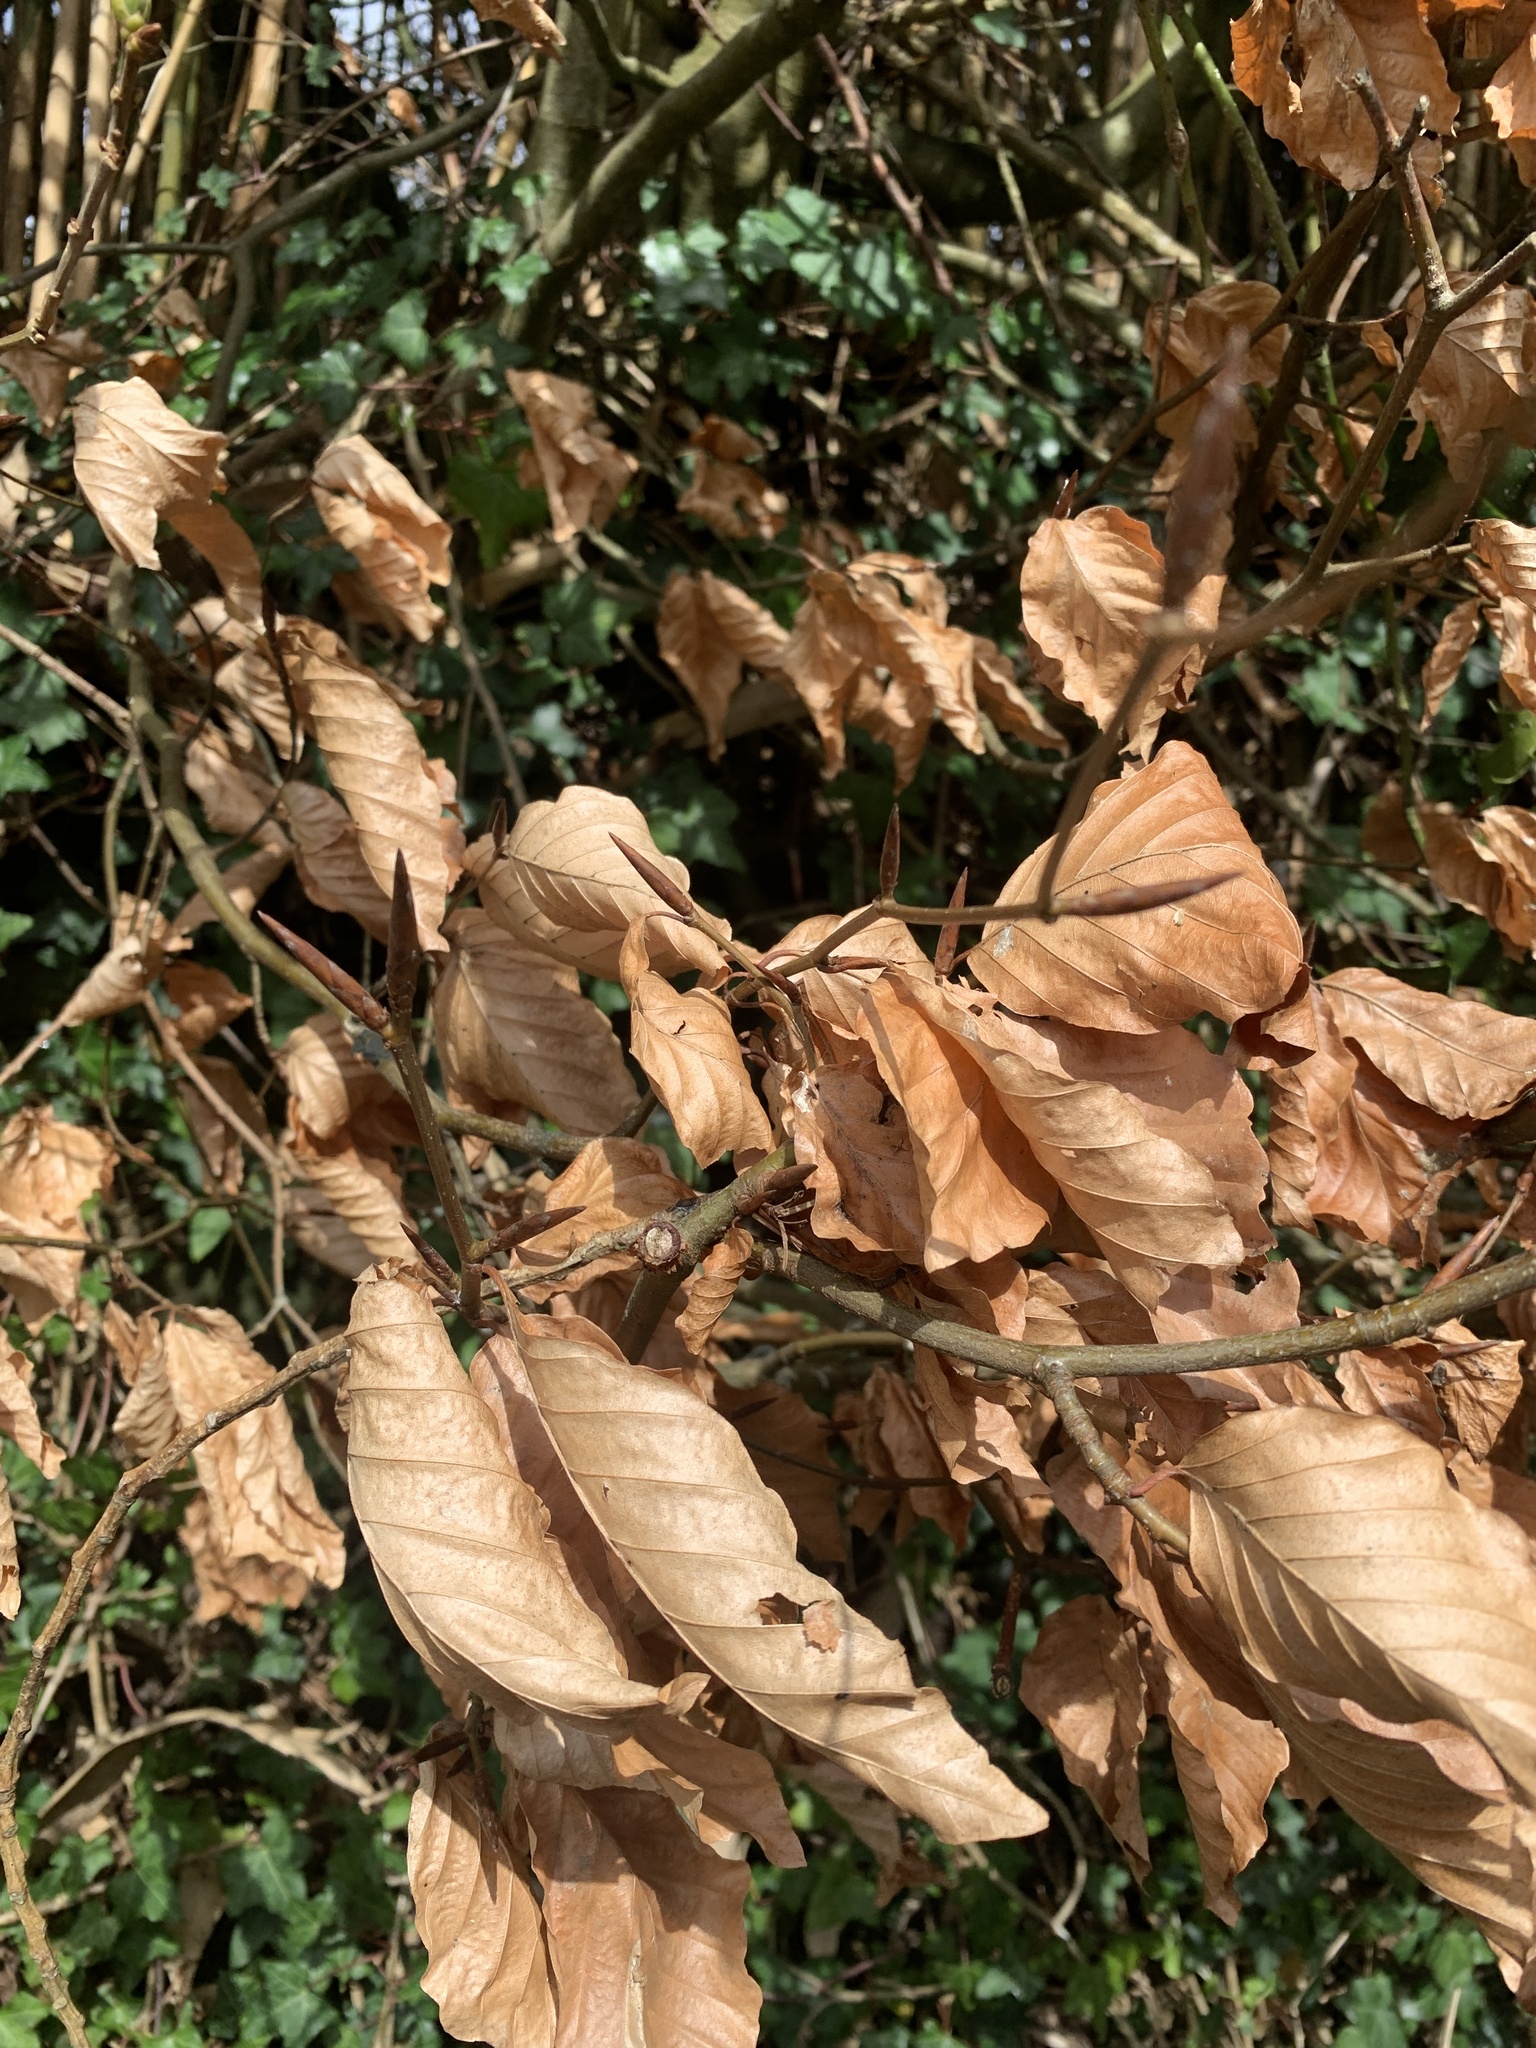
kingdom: Plantae
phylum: Tracheophyta
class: Magnoliopsida
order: Fagales
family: Fagaceae
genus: Fagus
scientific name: Fagus sylvatica
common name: Beech
